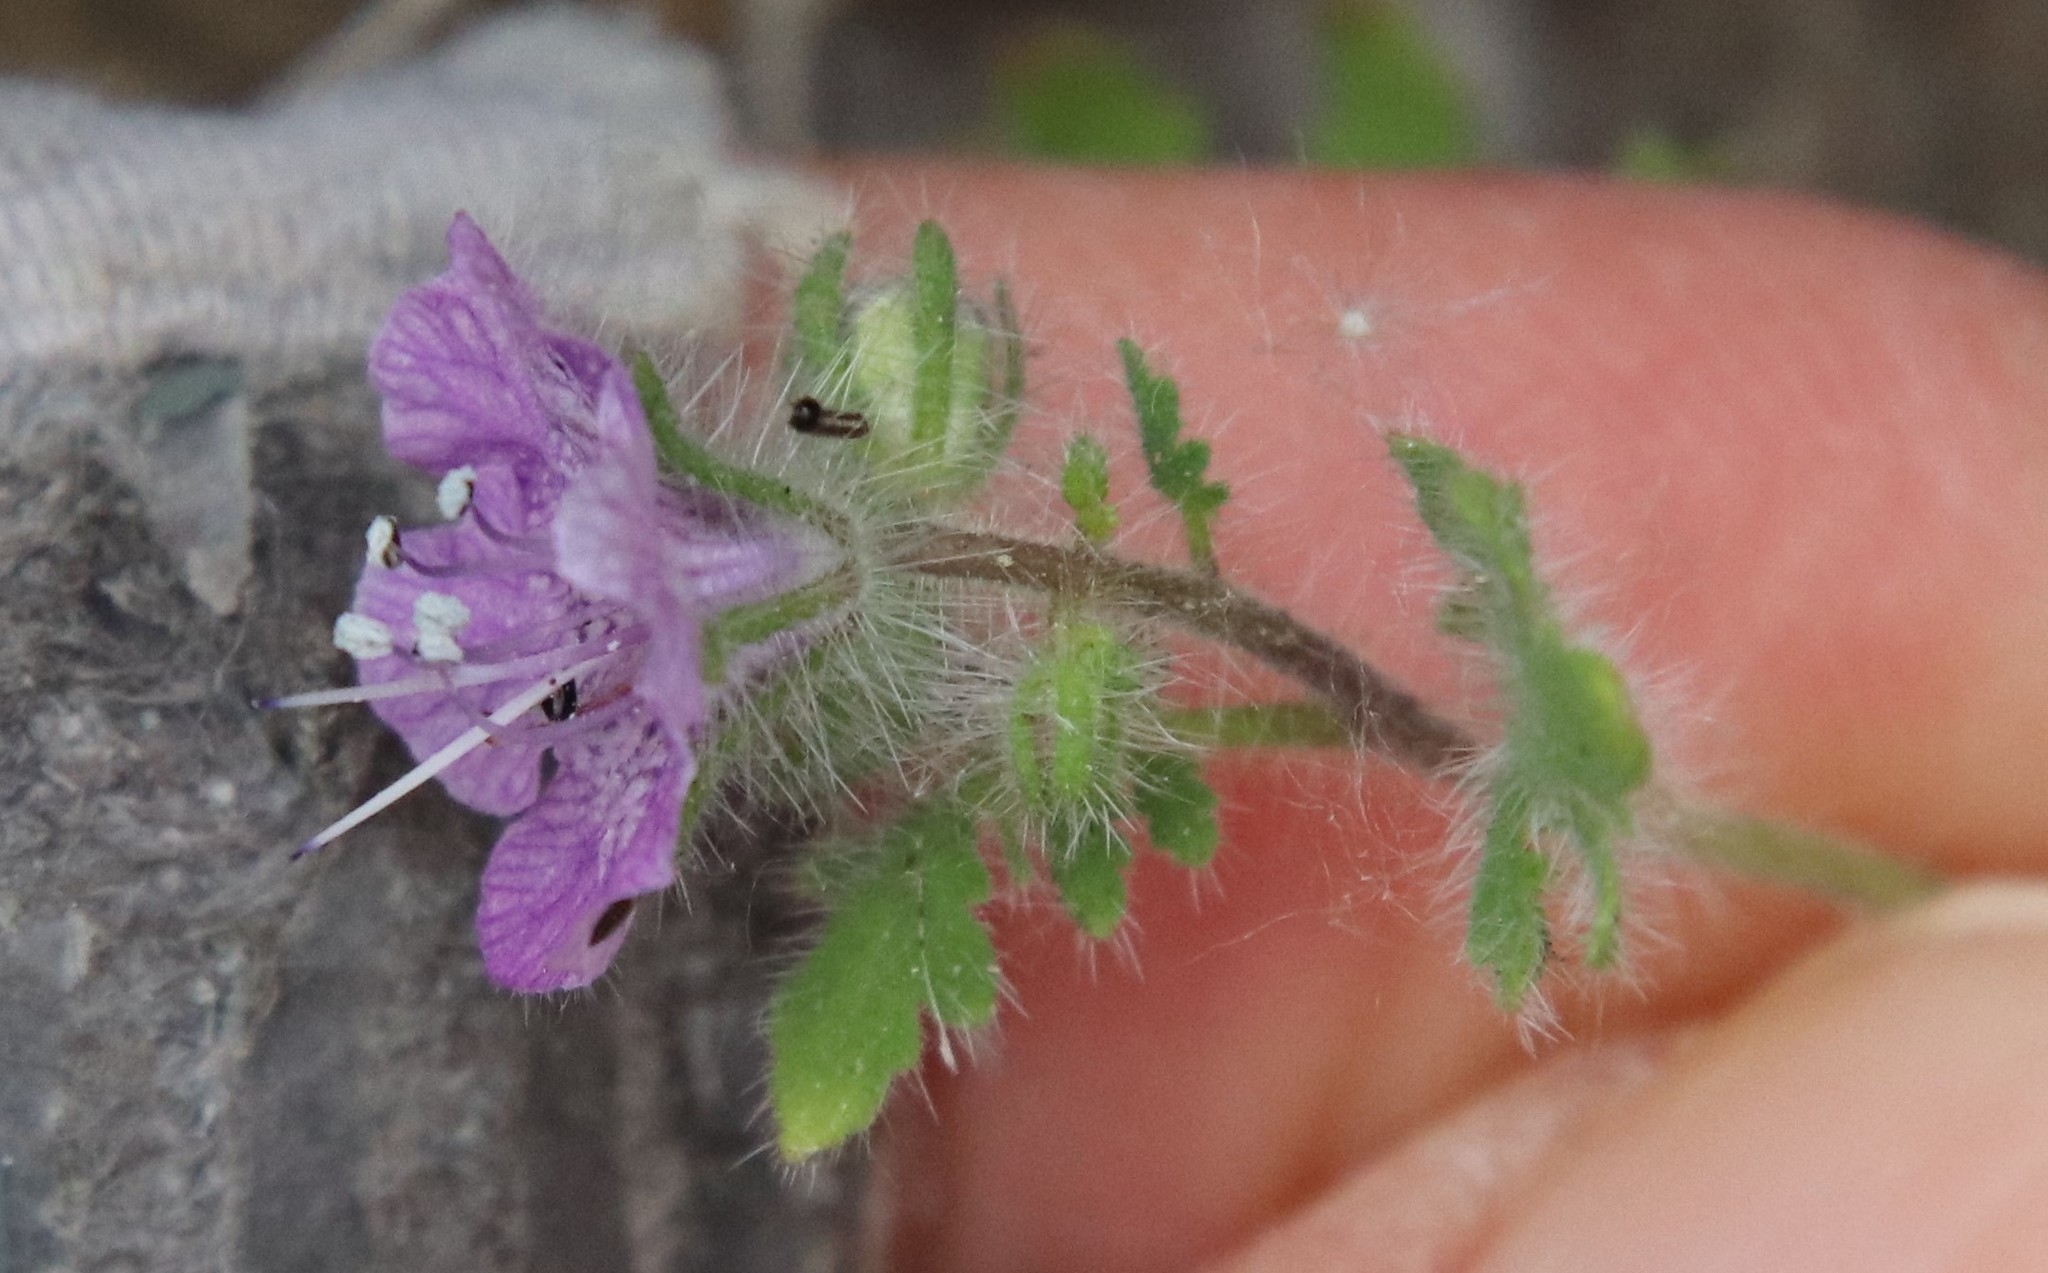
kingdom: Plantae
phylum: Tracheophyta
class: Magnoliopsida
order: Boraginales
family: Hydrophyllaceae
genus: Phacelia
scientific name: Phacelia cicutaria
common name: Caterpillar phacelia
